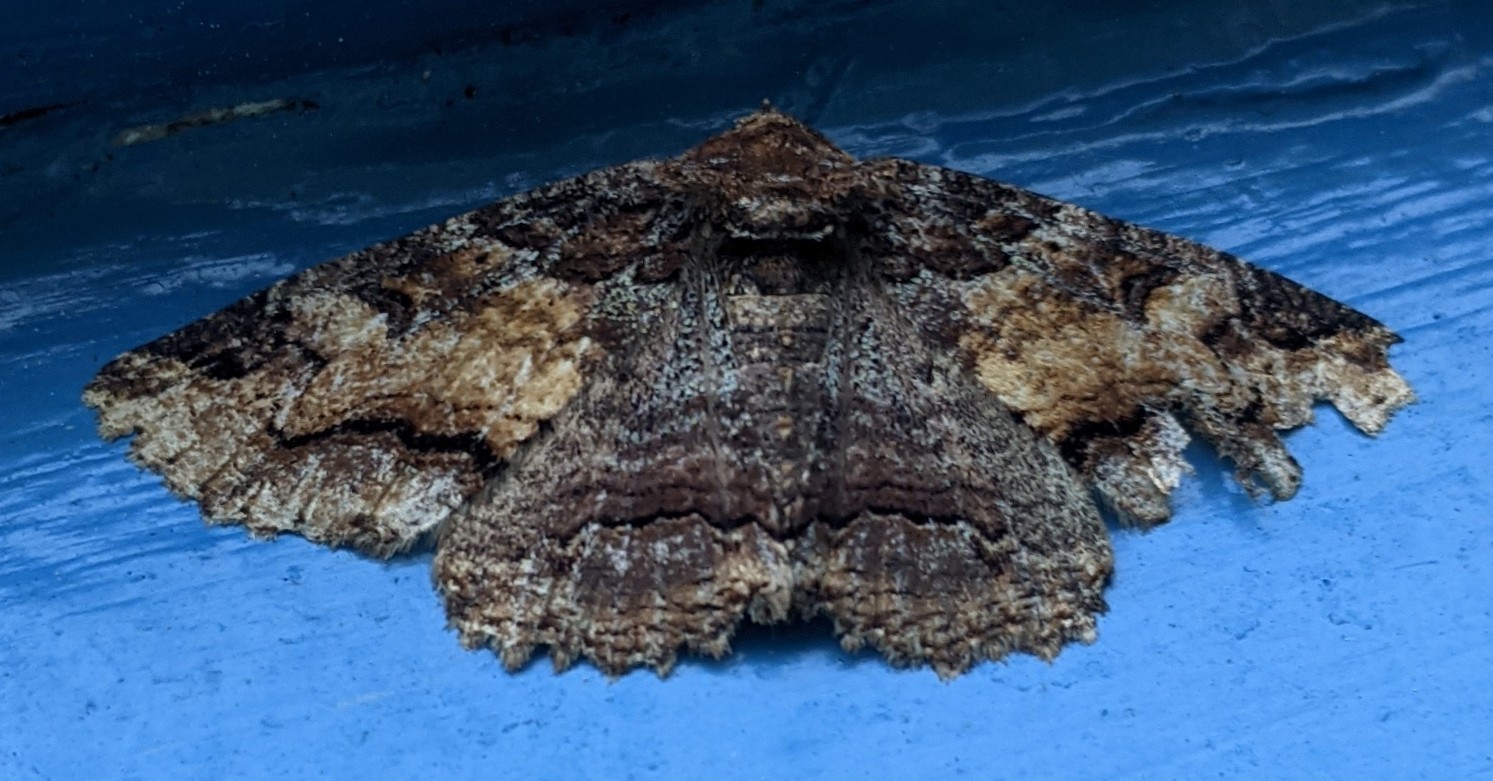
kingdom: Animalia
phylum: Arthropoda
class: Insecta
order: Lepidoptera
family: Erebidae
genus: Zale
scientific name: Zale minerea
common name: Colorful zale moth
